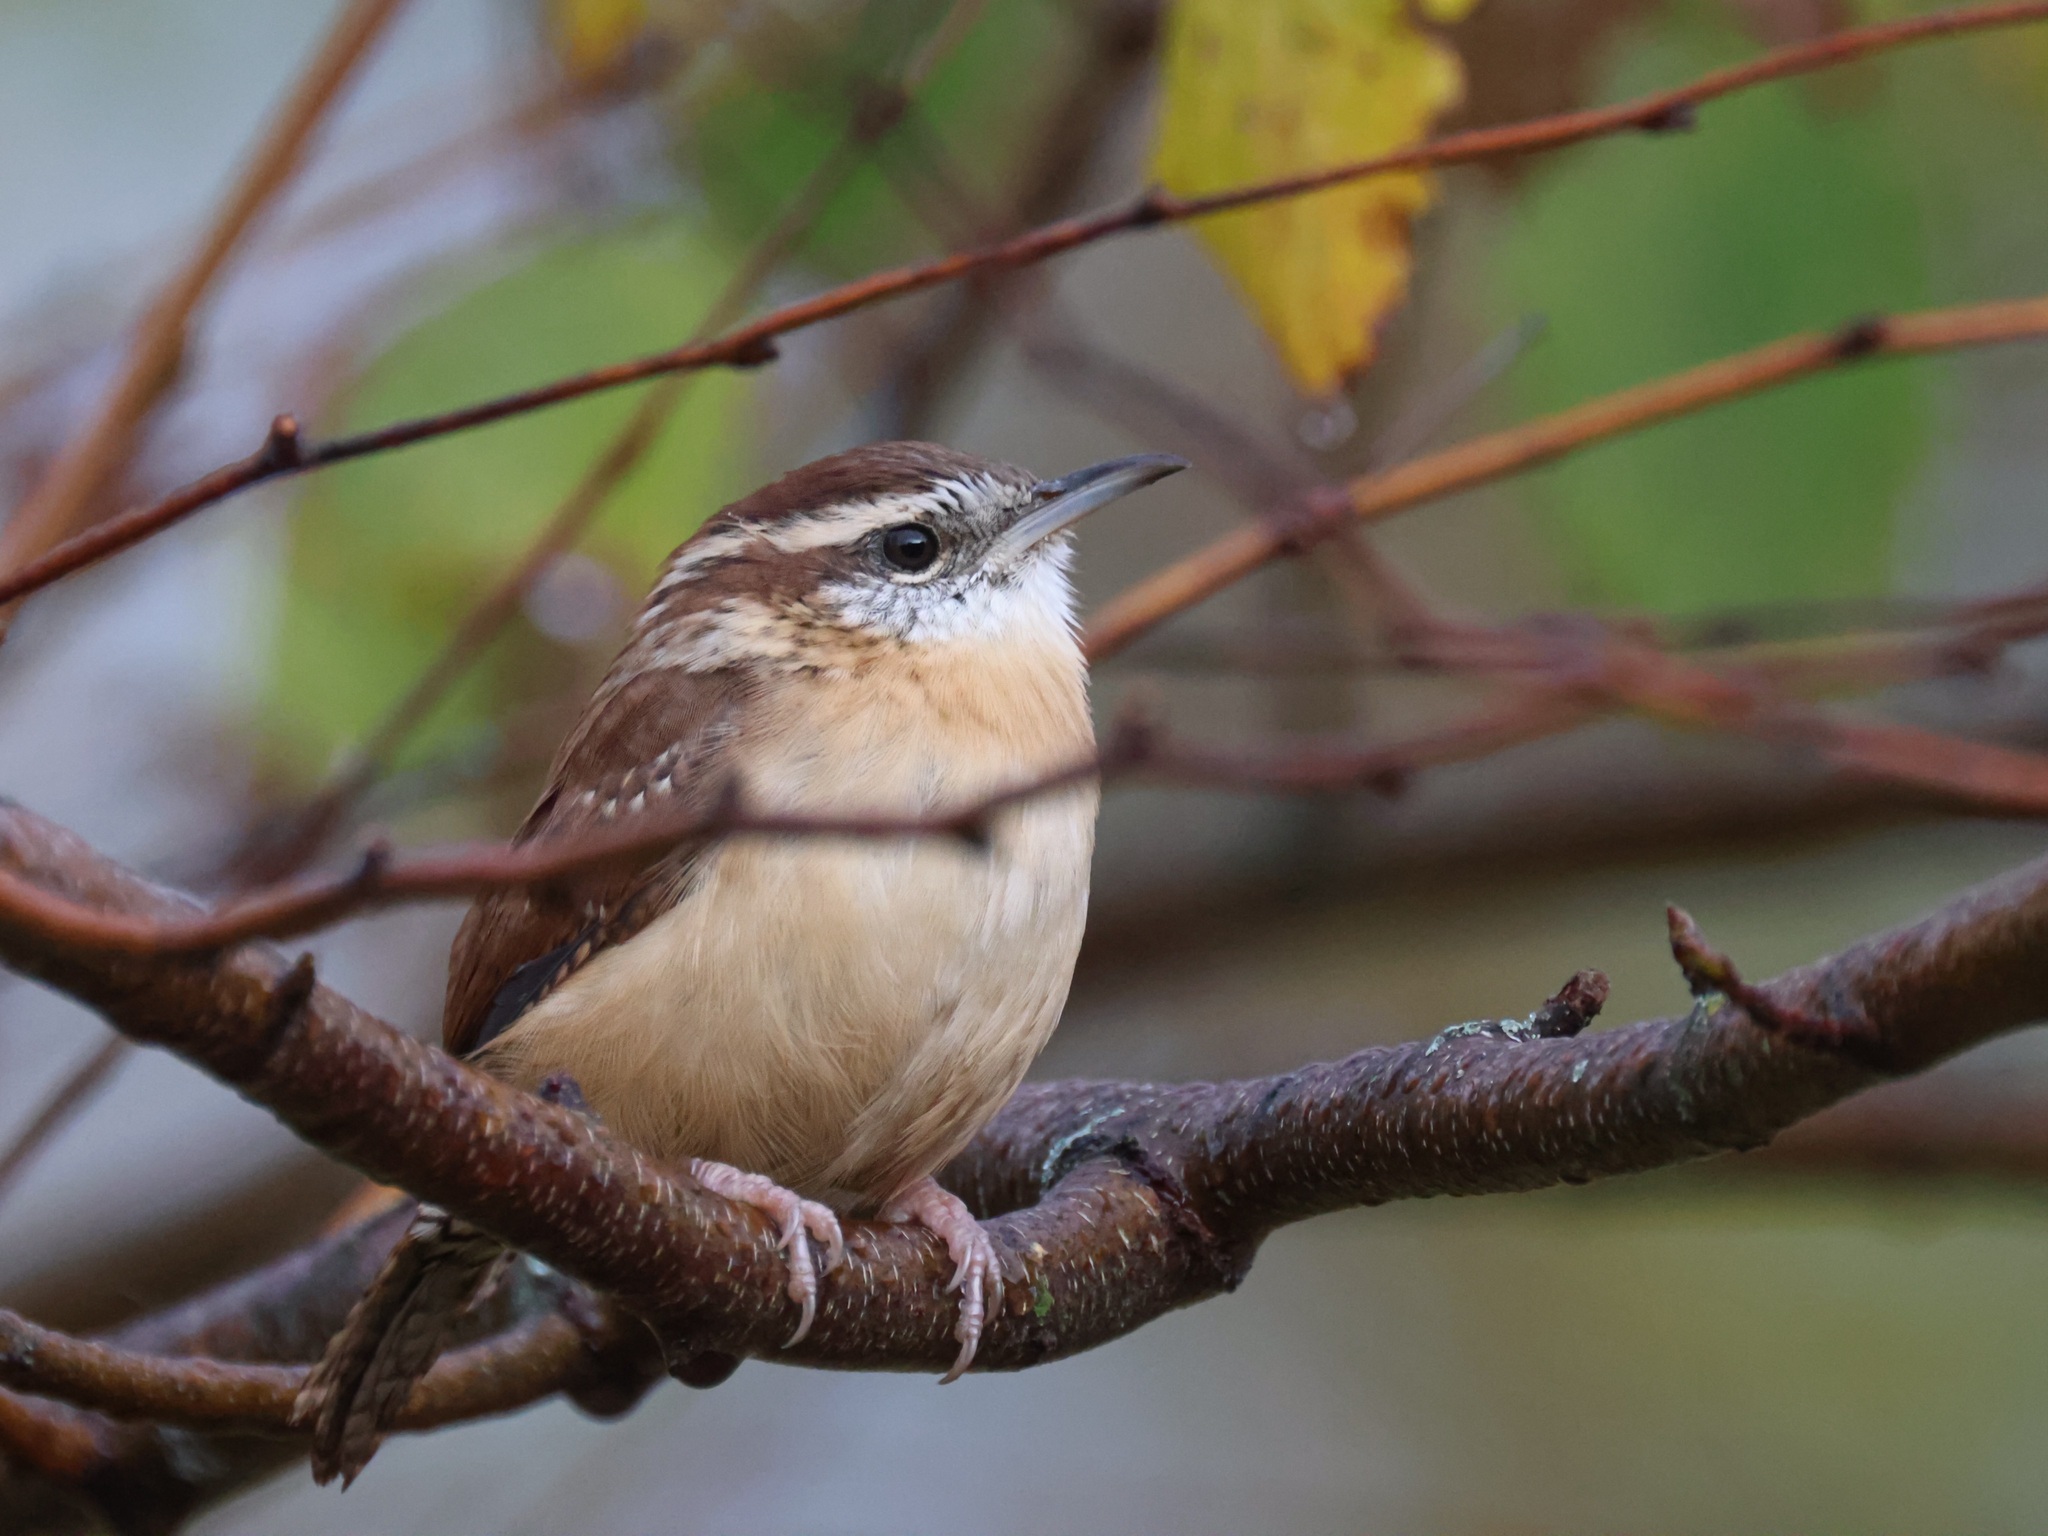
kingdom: Animalia
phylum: Chordata
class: Aves
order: Passeriformes
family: Troglodytidae
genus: Thryothorus
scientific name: Thryothorus ludovicianus
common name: Carolina wren
